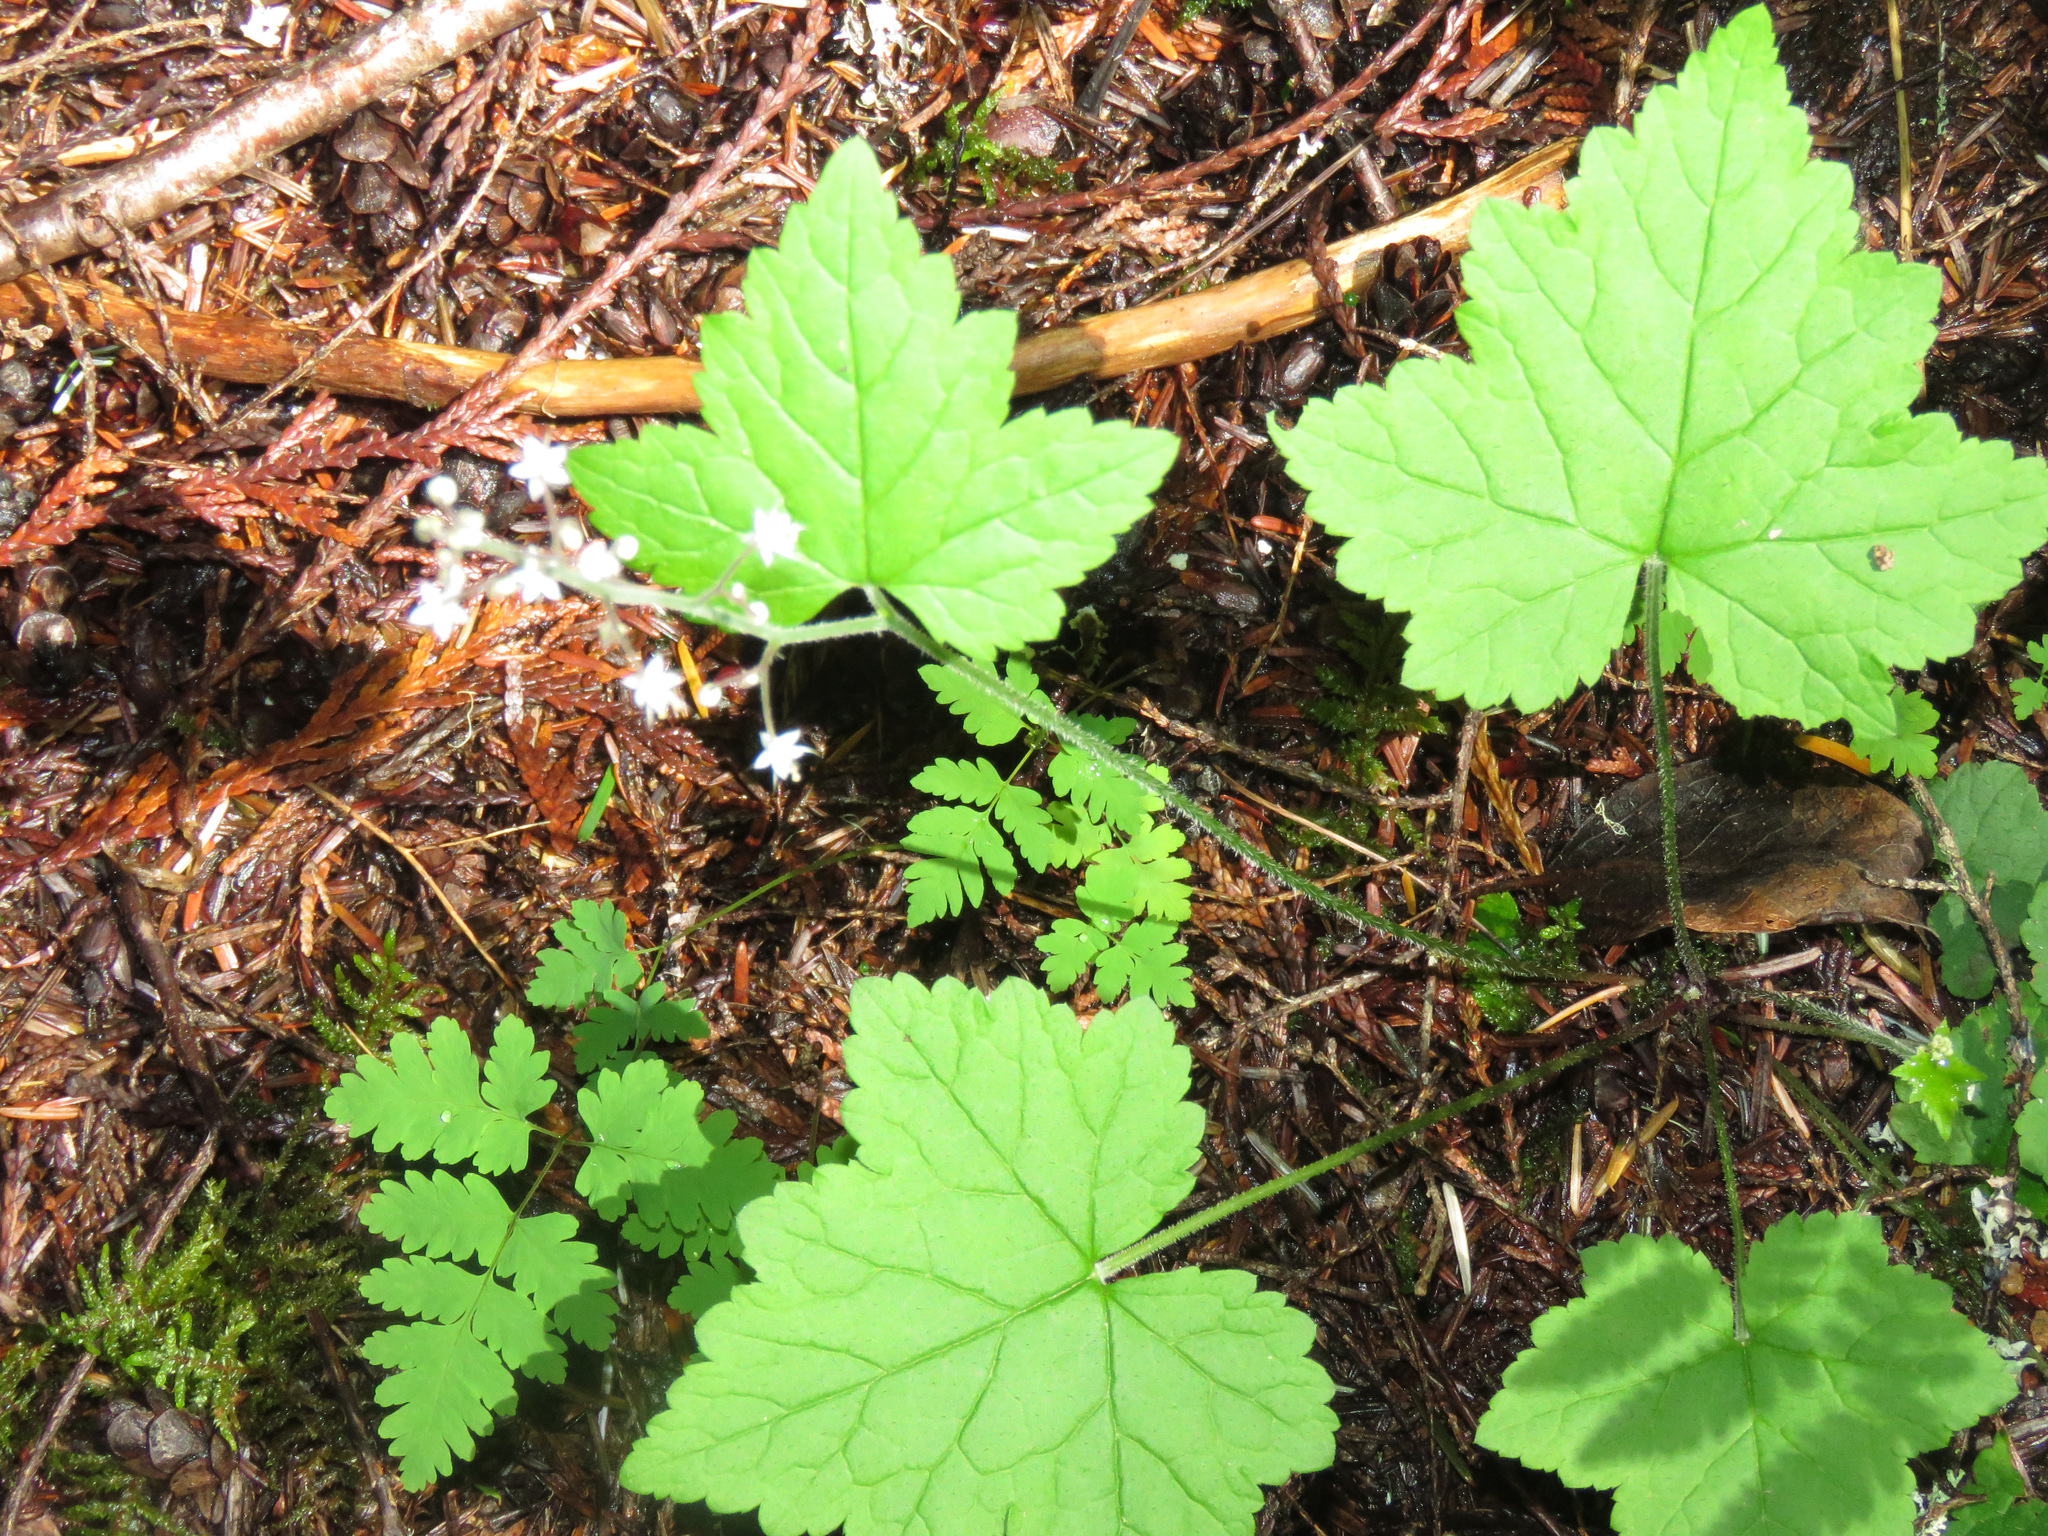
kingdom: Plantae
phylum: Tracheophyta
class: Magnoliopsida
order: Saxifragales
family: Saxifragaceae
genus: Tiarella
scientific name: Tiarella trifoliata
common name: Sugar-scoop
